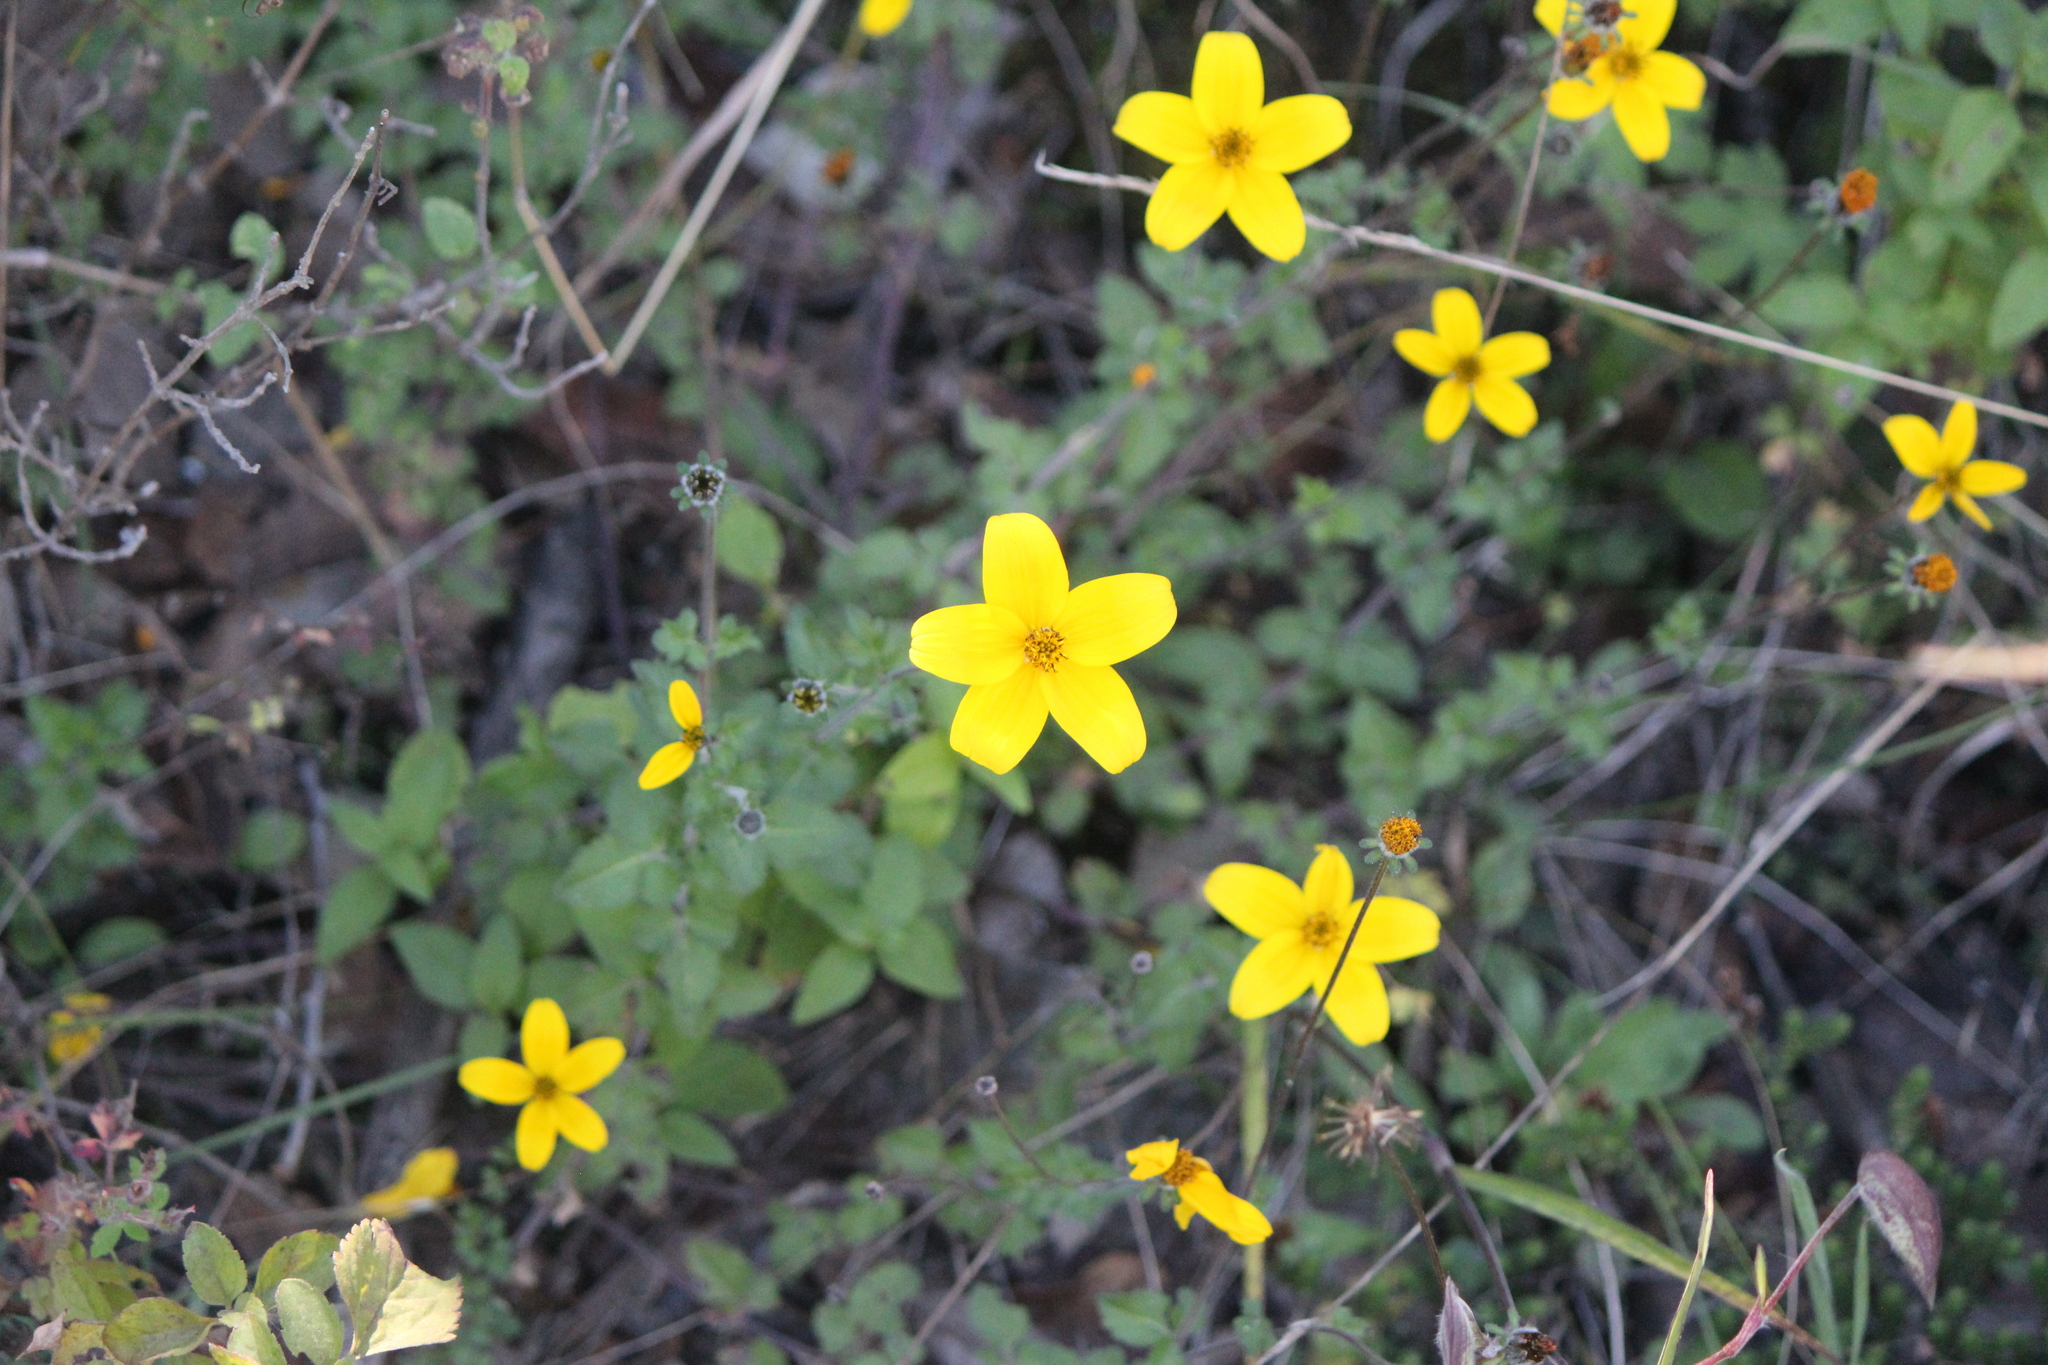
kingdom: Plantae
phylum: Tracheophyta
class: Magnoliopsida
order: Asterales
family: Asteraceae
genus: Bidens
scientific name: Bidens triplinervia
